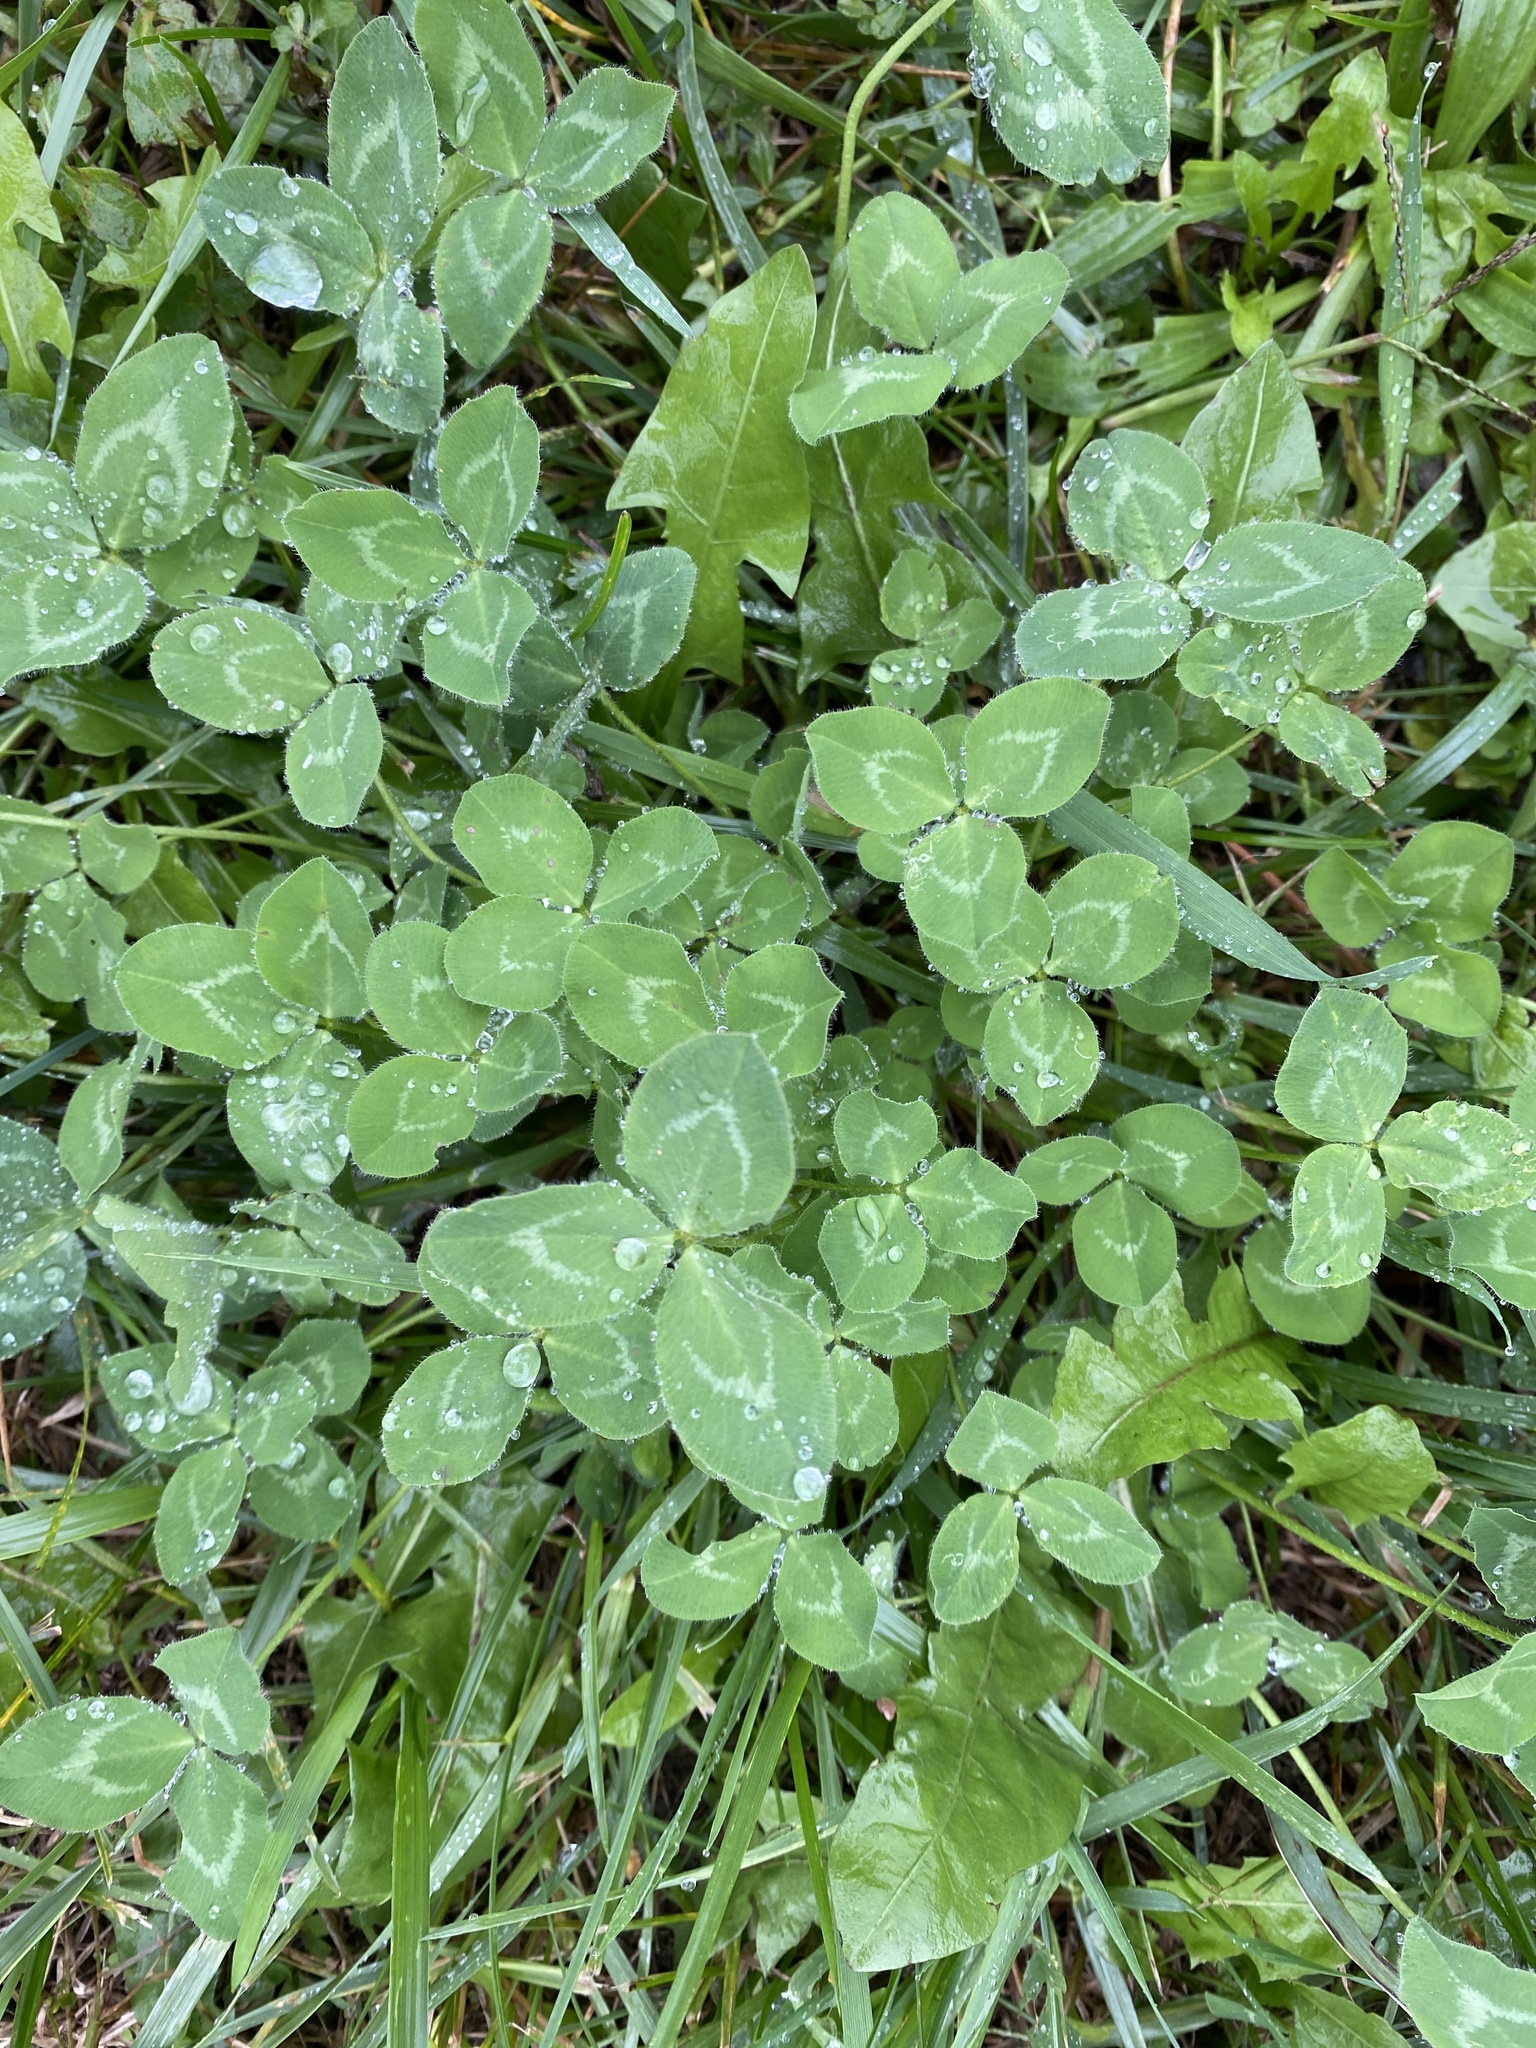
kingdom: Plantae
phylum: Tracheophyta
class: Magnoliopsida
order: Fabales
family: Fabaceae
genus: Trifolium
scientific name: Trifolium pratense
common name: Red clover
